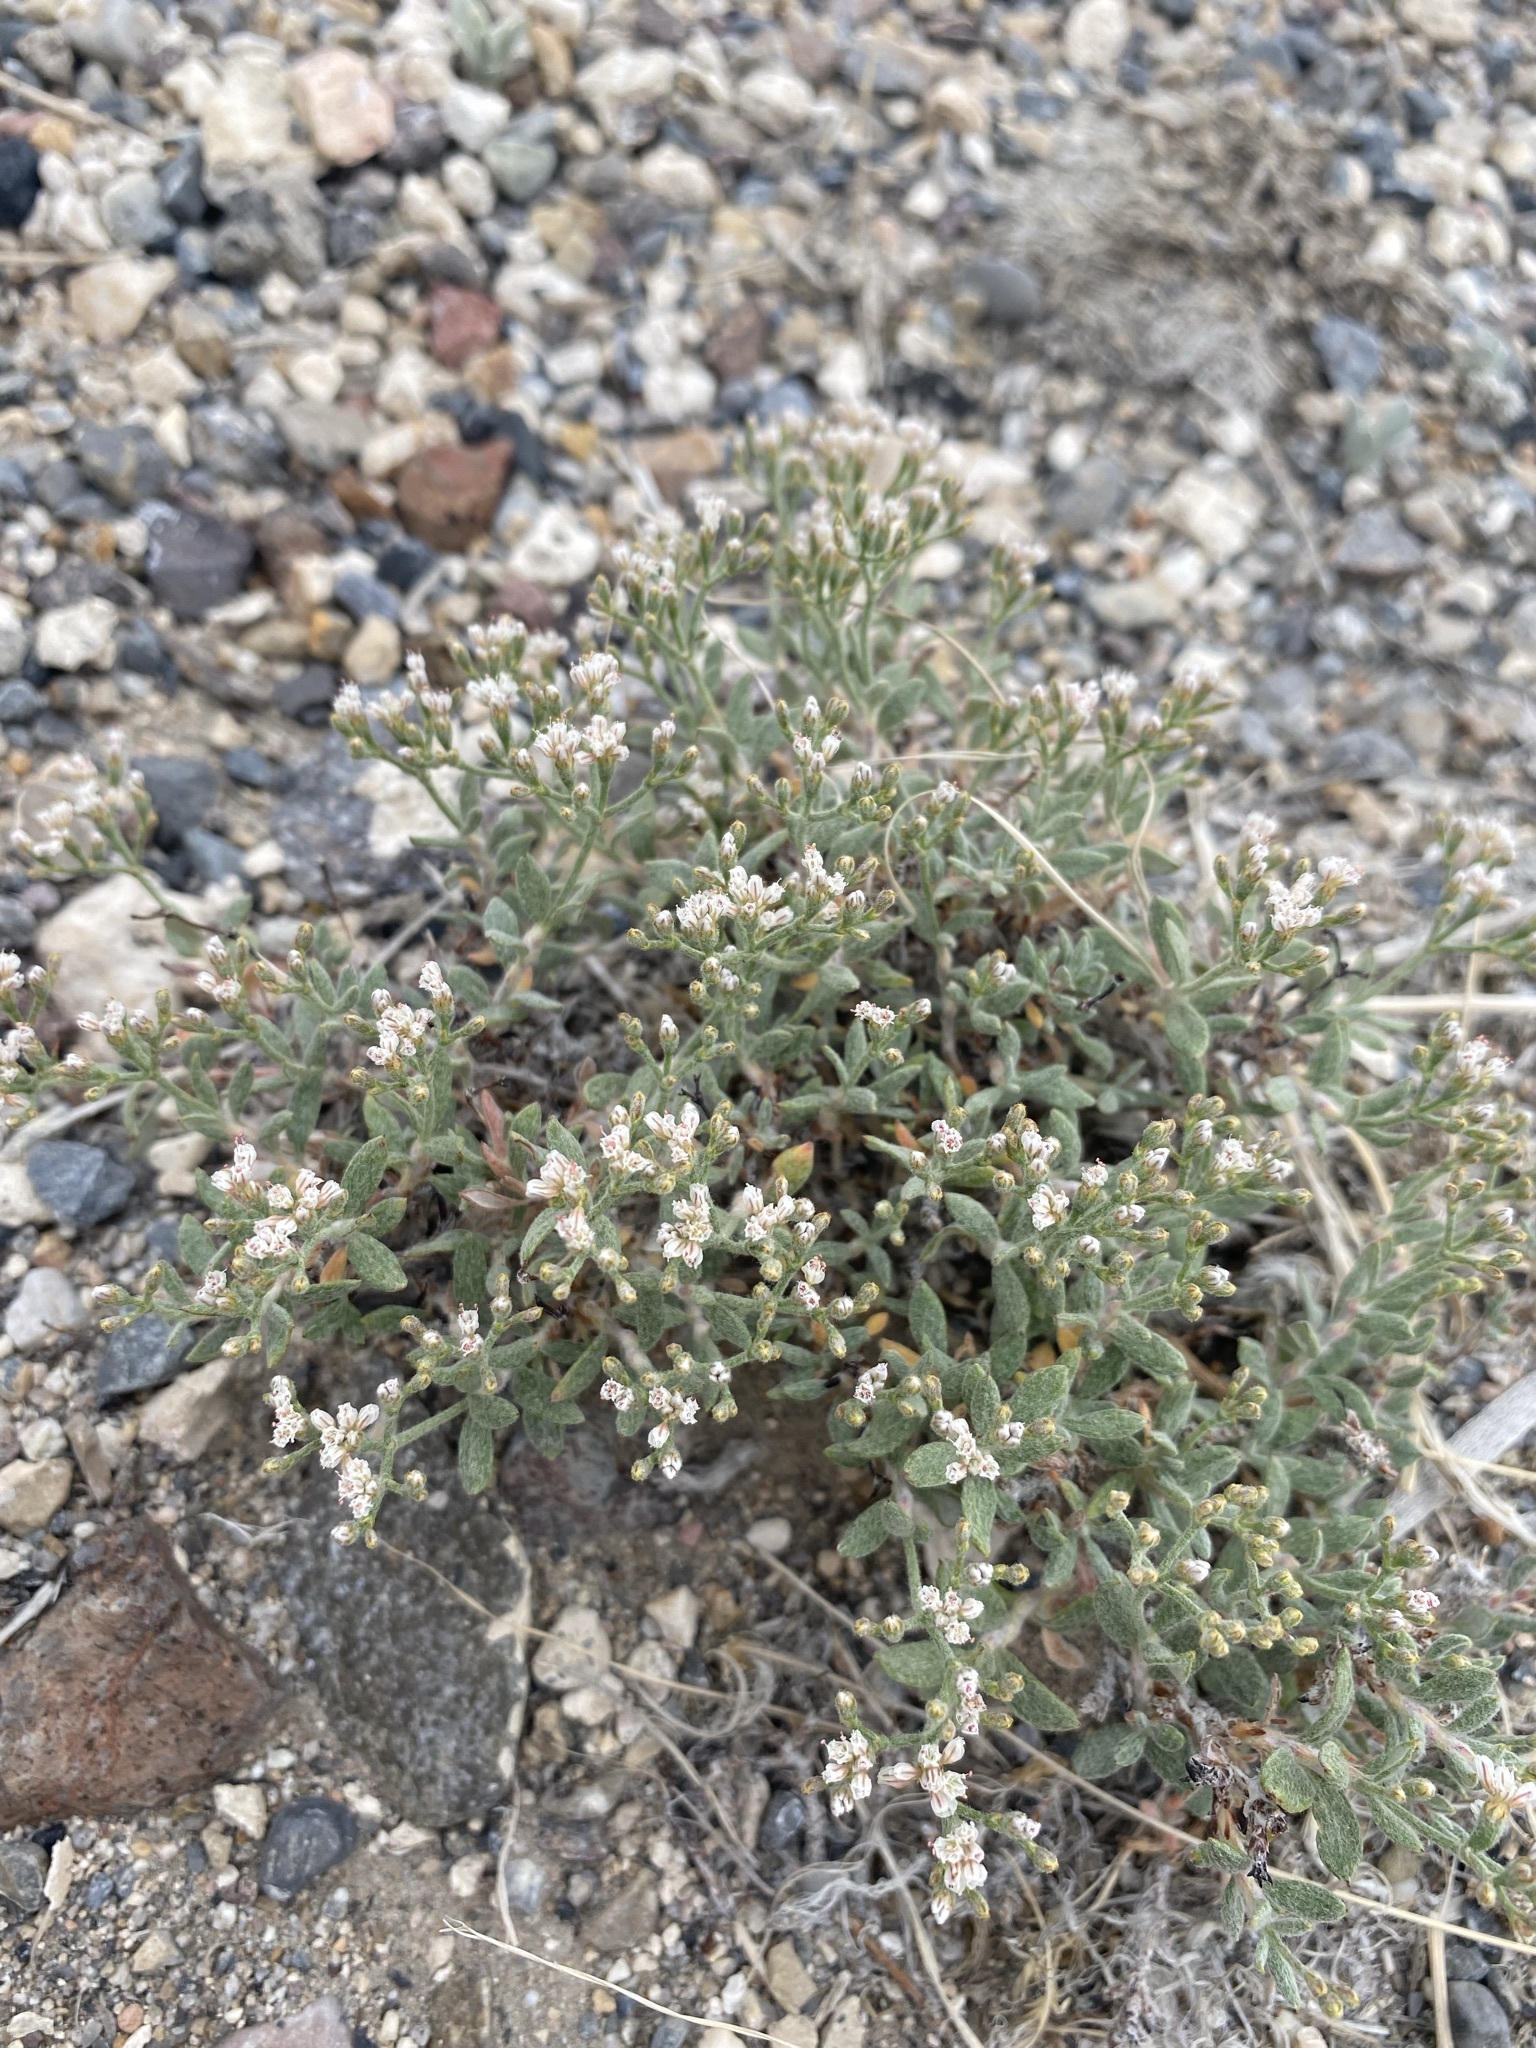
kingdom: Plantae
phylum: Tracheophyta
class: Magnoliopsida
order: Caryophyllales
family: Polygonaceae
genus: Eriogonum
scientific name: Eriogonum microtheca
